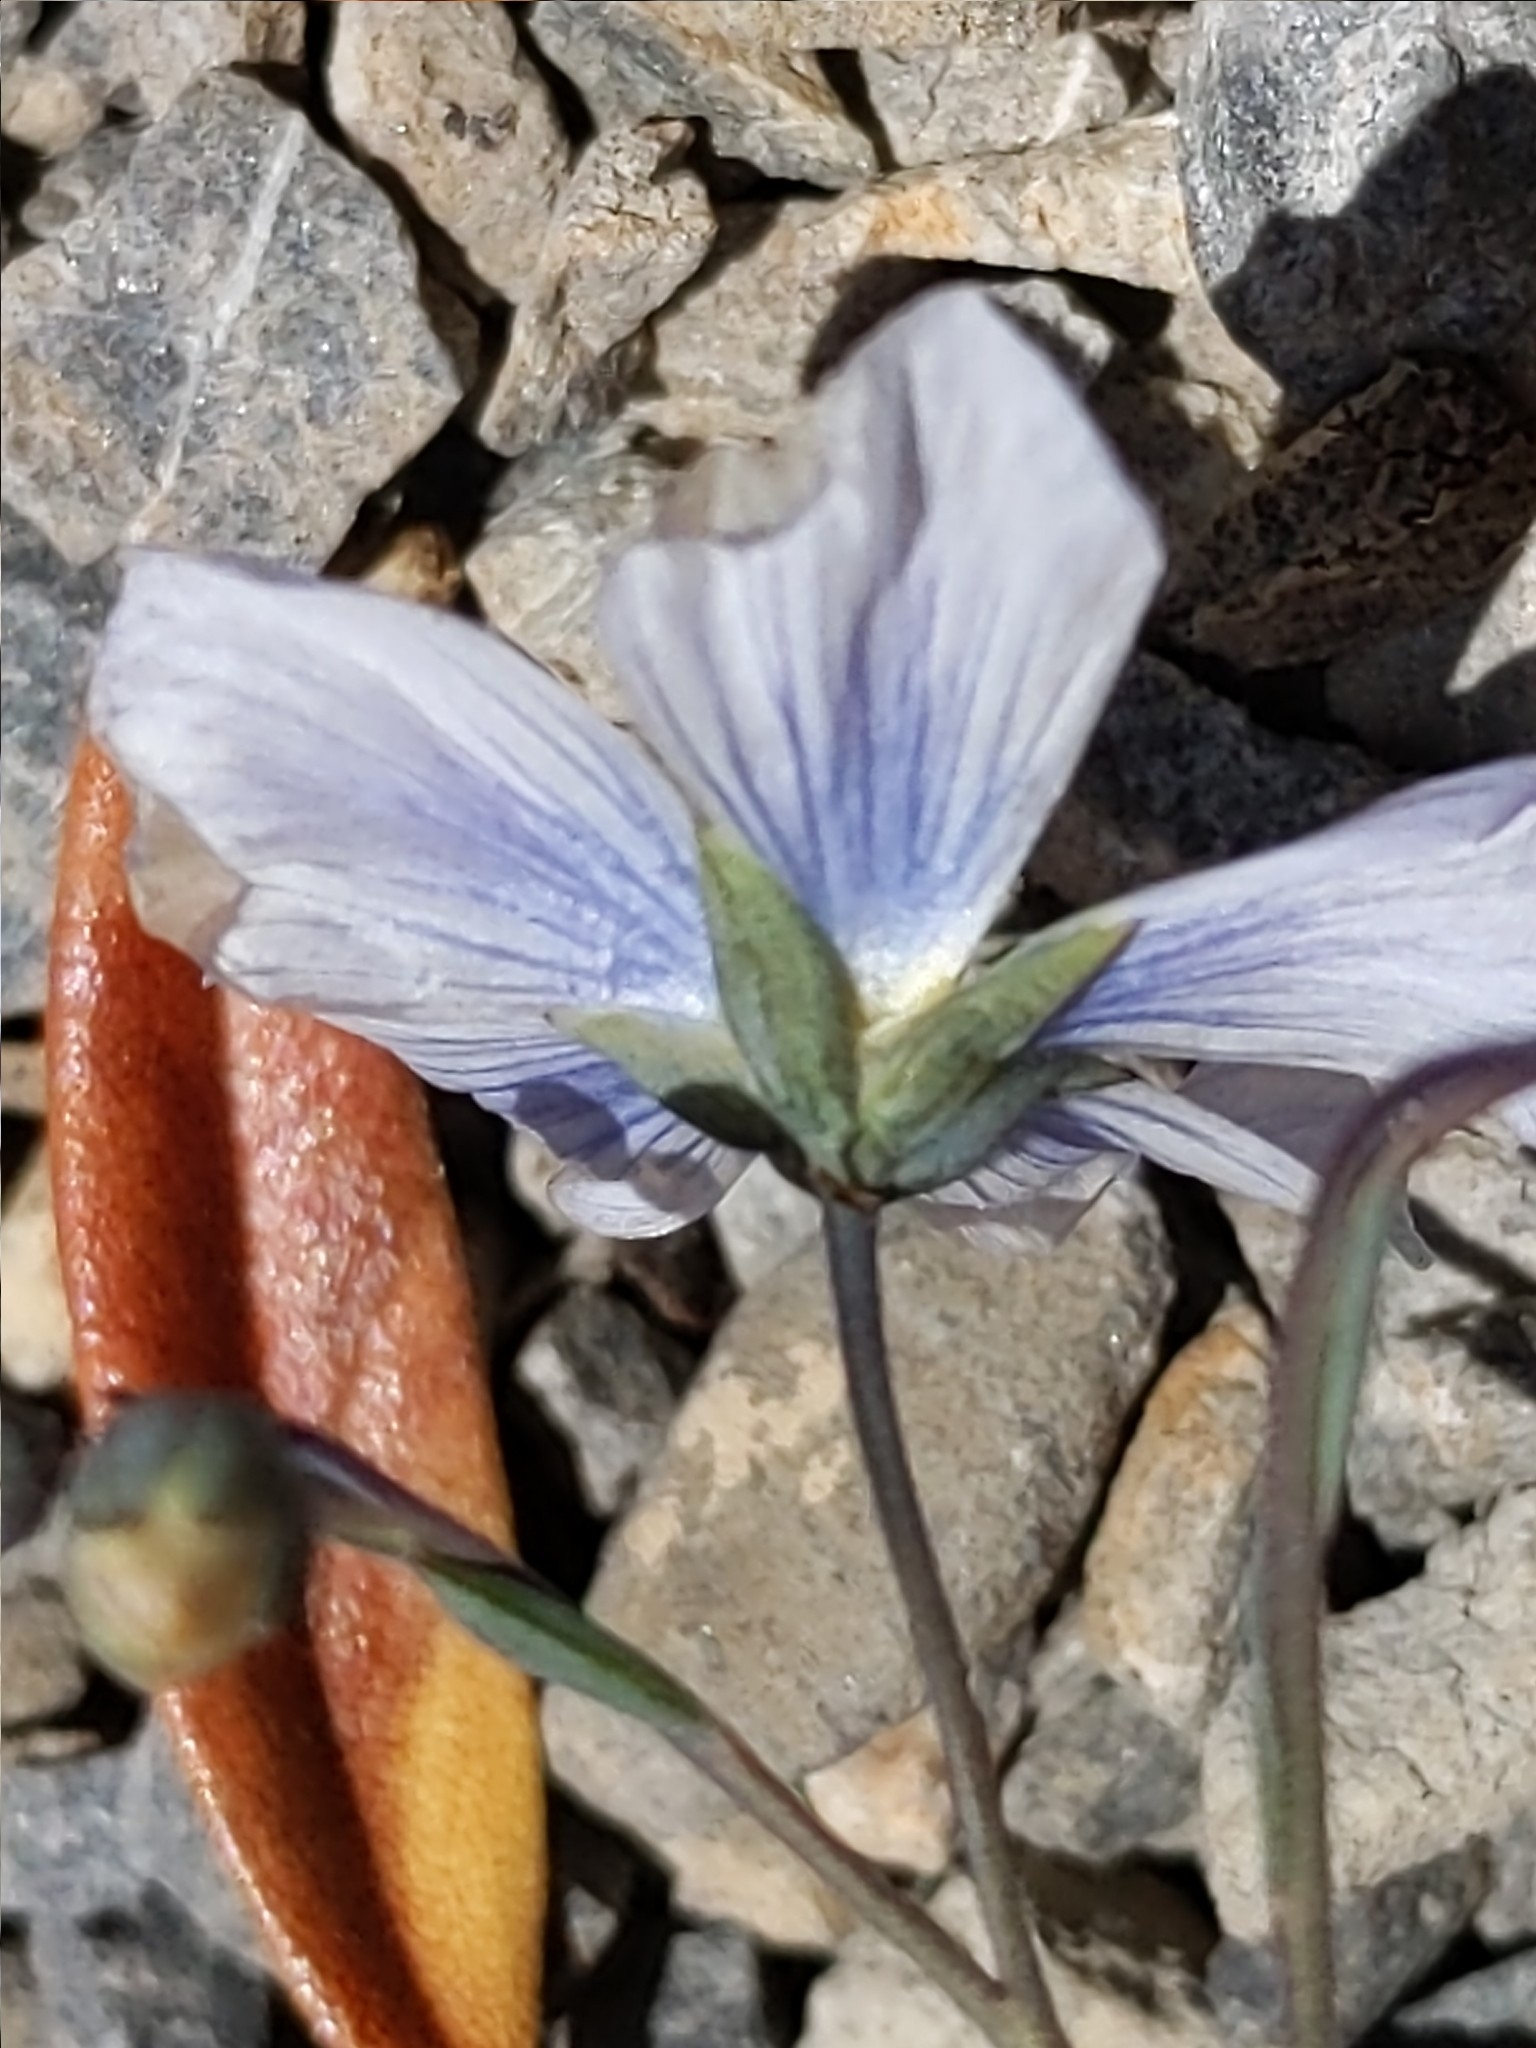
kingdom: Plantae
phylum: Tracheophyta
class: Magnoliopsida
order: Malpighiales
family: Linaceae
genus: Linum
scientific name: Linum lewisii
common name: Prairie flax
